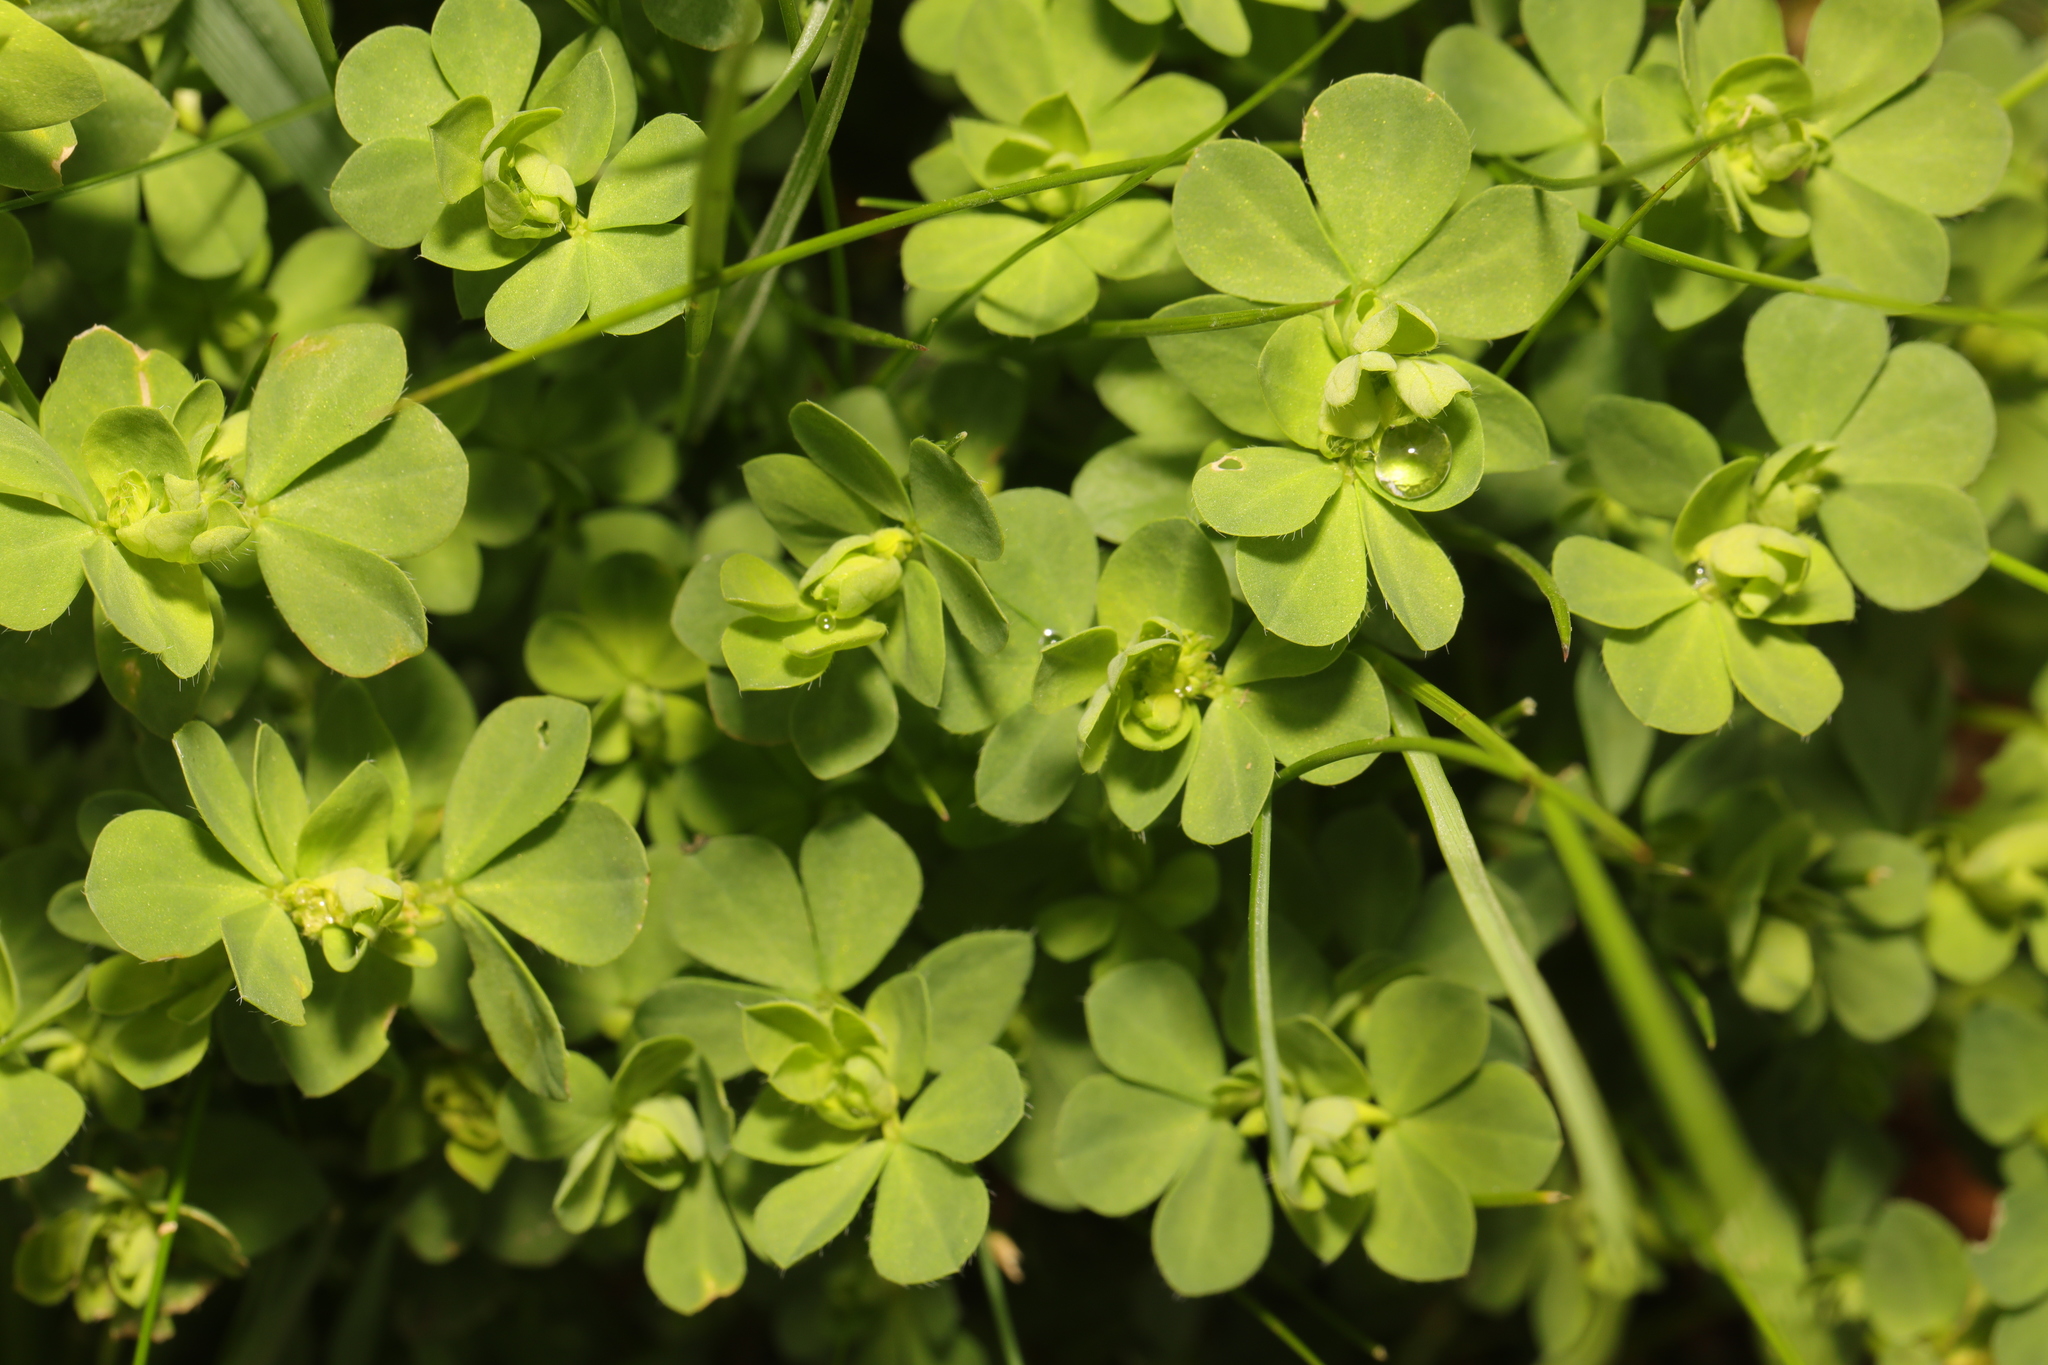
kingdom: Plantae
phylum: Tracheophyta
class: Magnoliopsida
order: Fabales
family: Fabaceae
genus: Lotus
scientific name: Lotus corniculatus
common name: Common bird's-foot-trefoil
